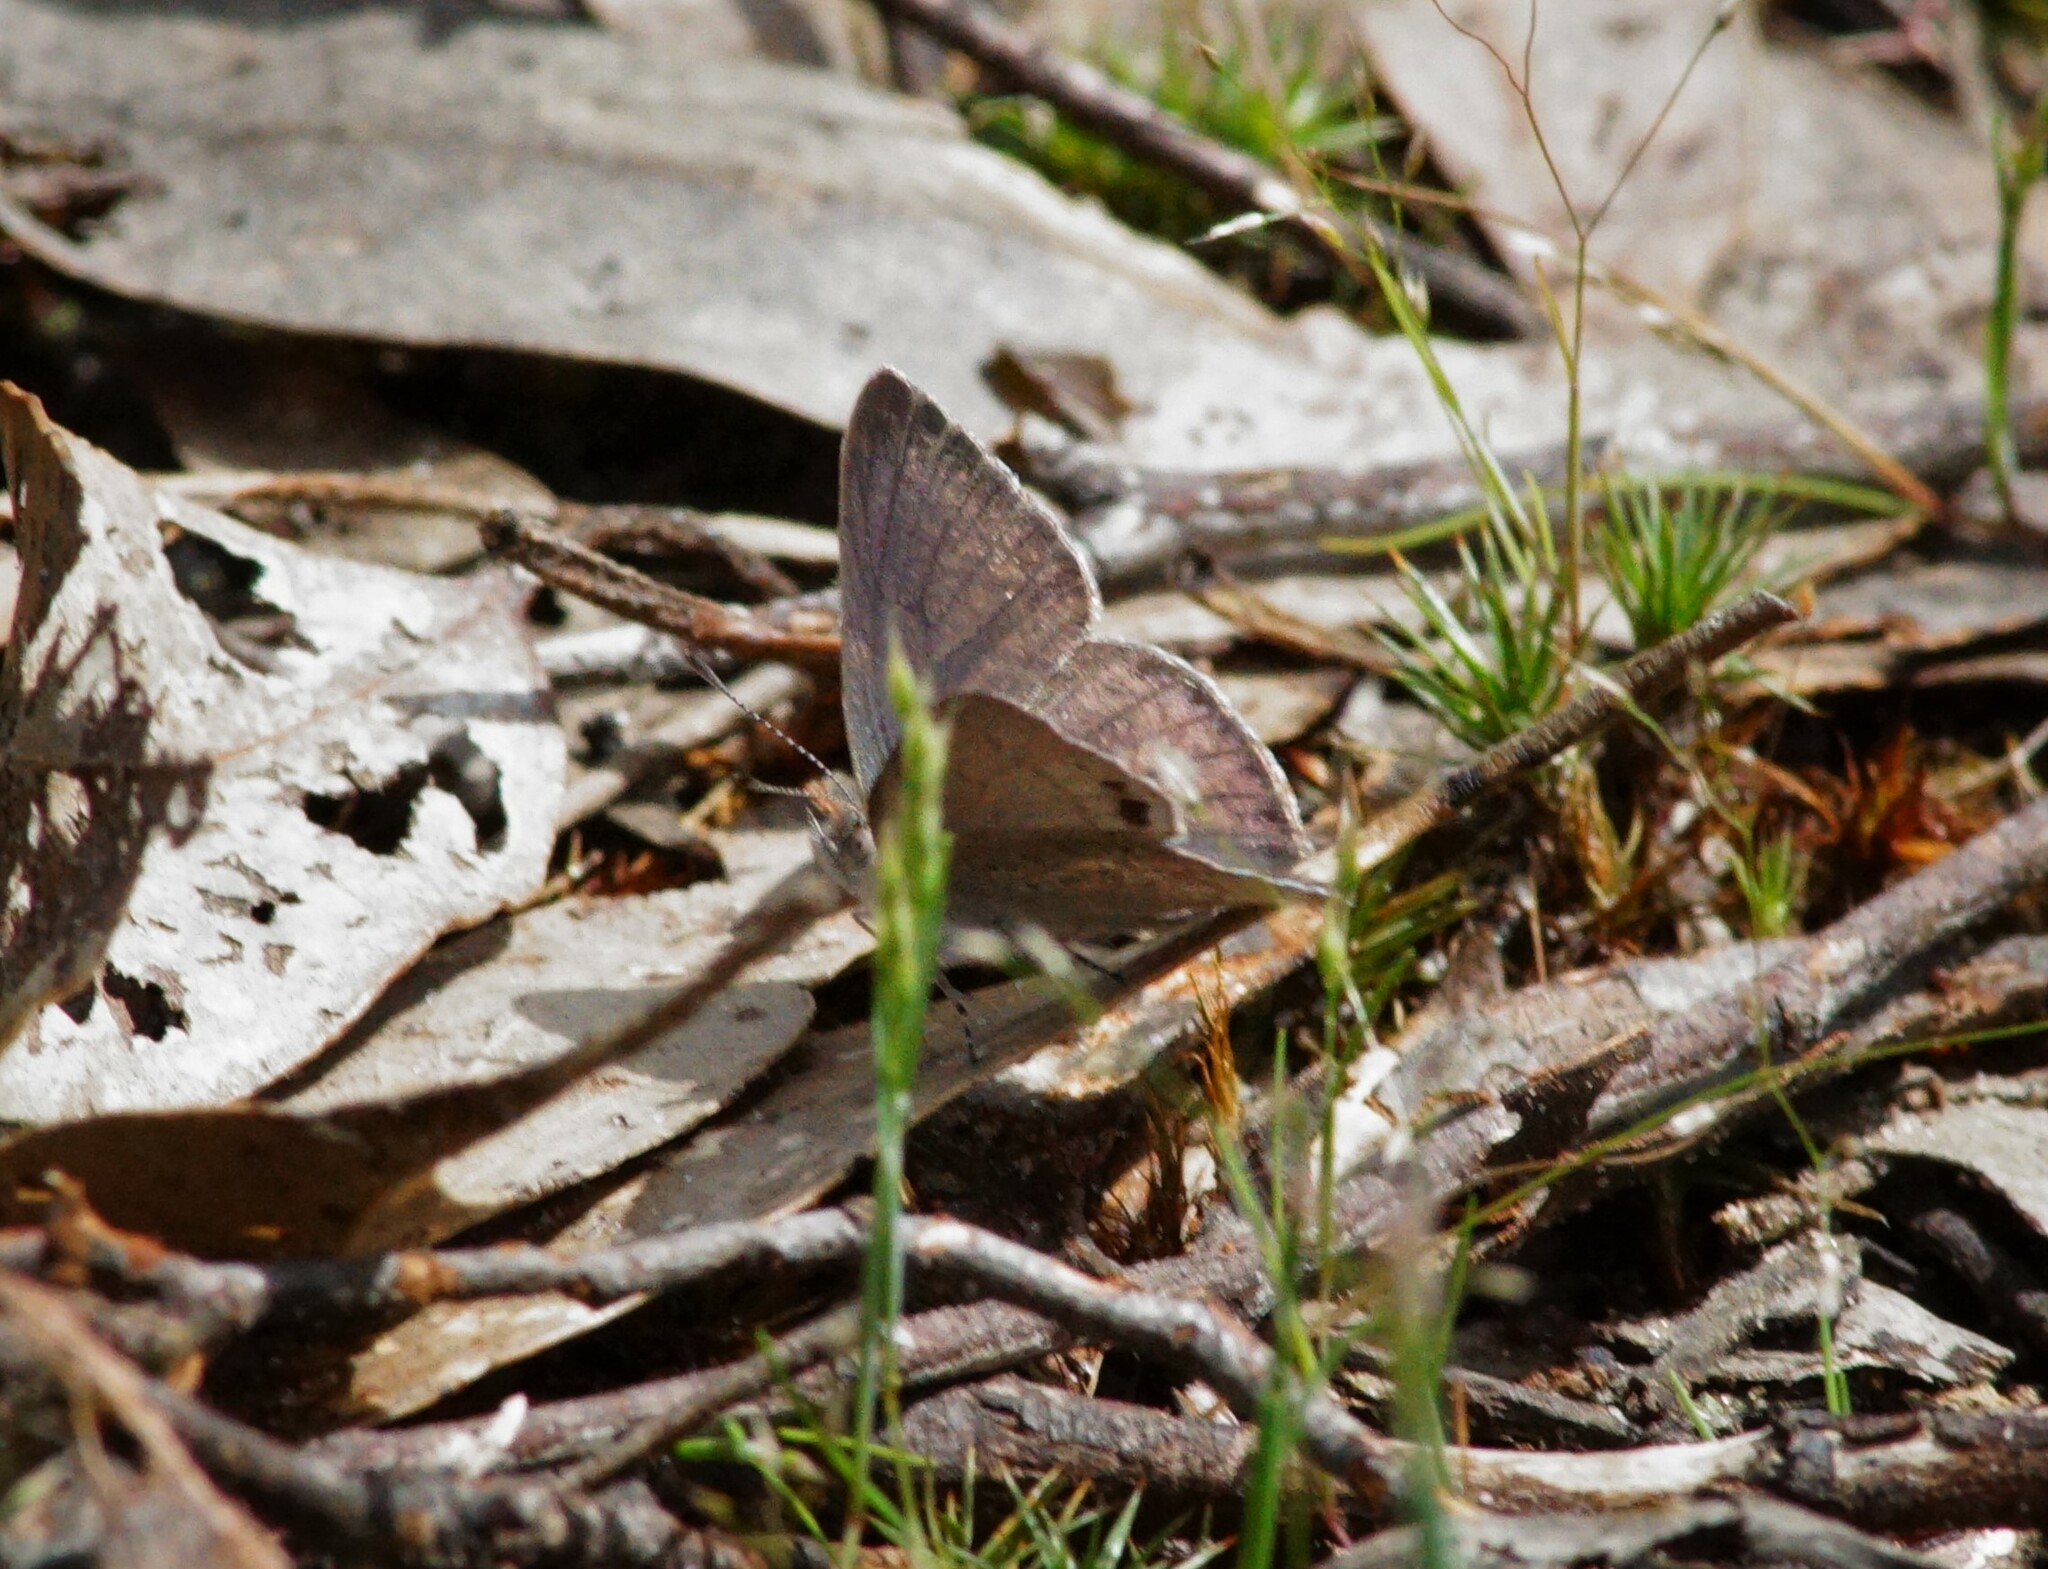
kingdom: Animalia
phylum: Arthropoda
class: Insecta
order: Lepidoptera
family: Lycaenidae
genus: Candalides
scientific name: Candalides
